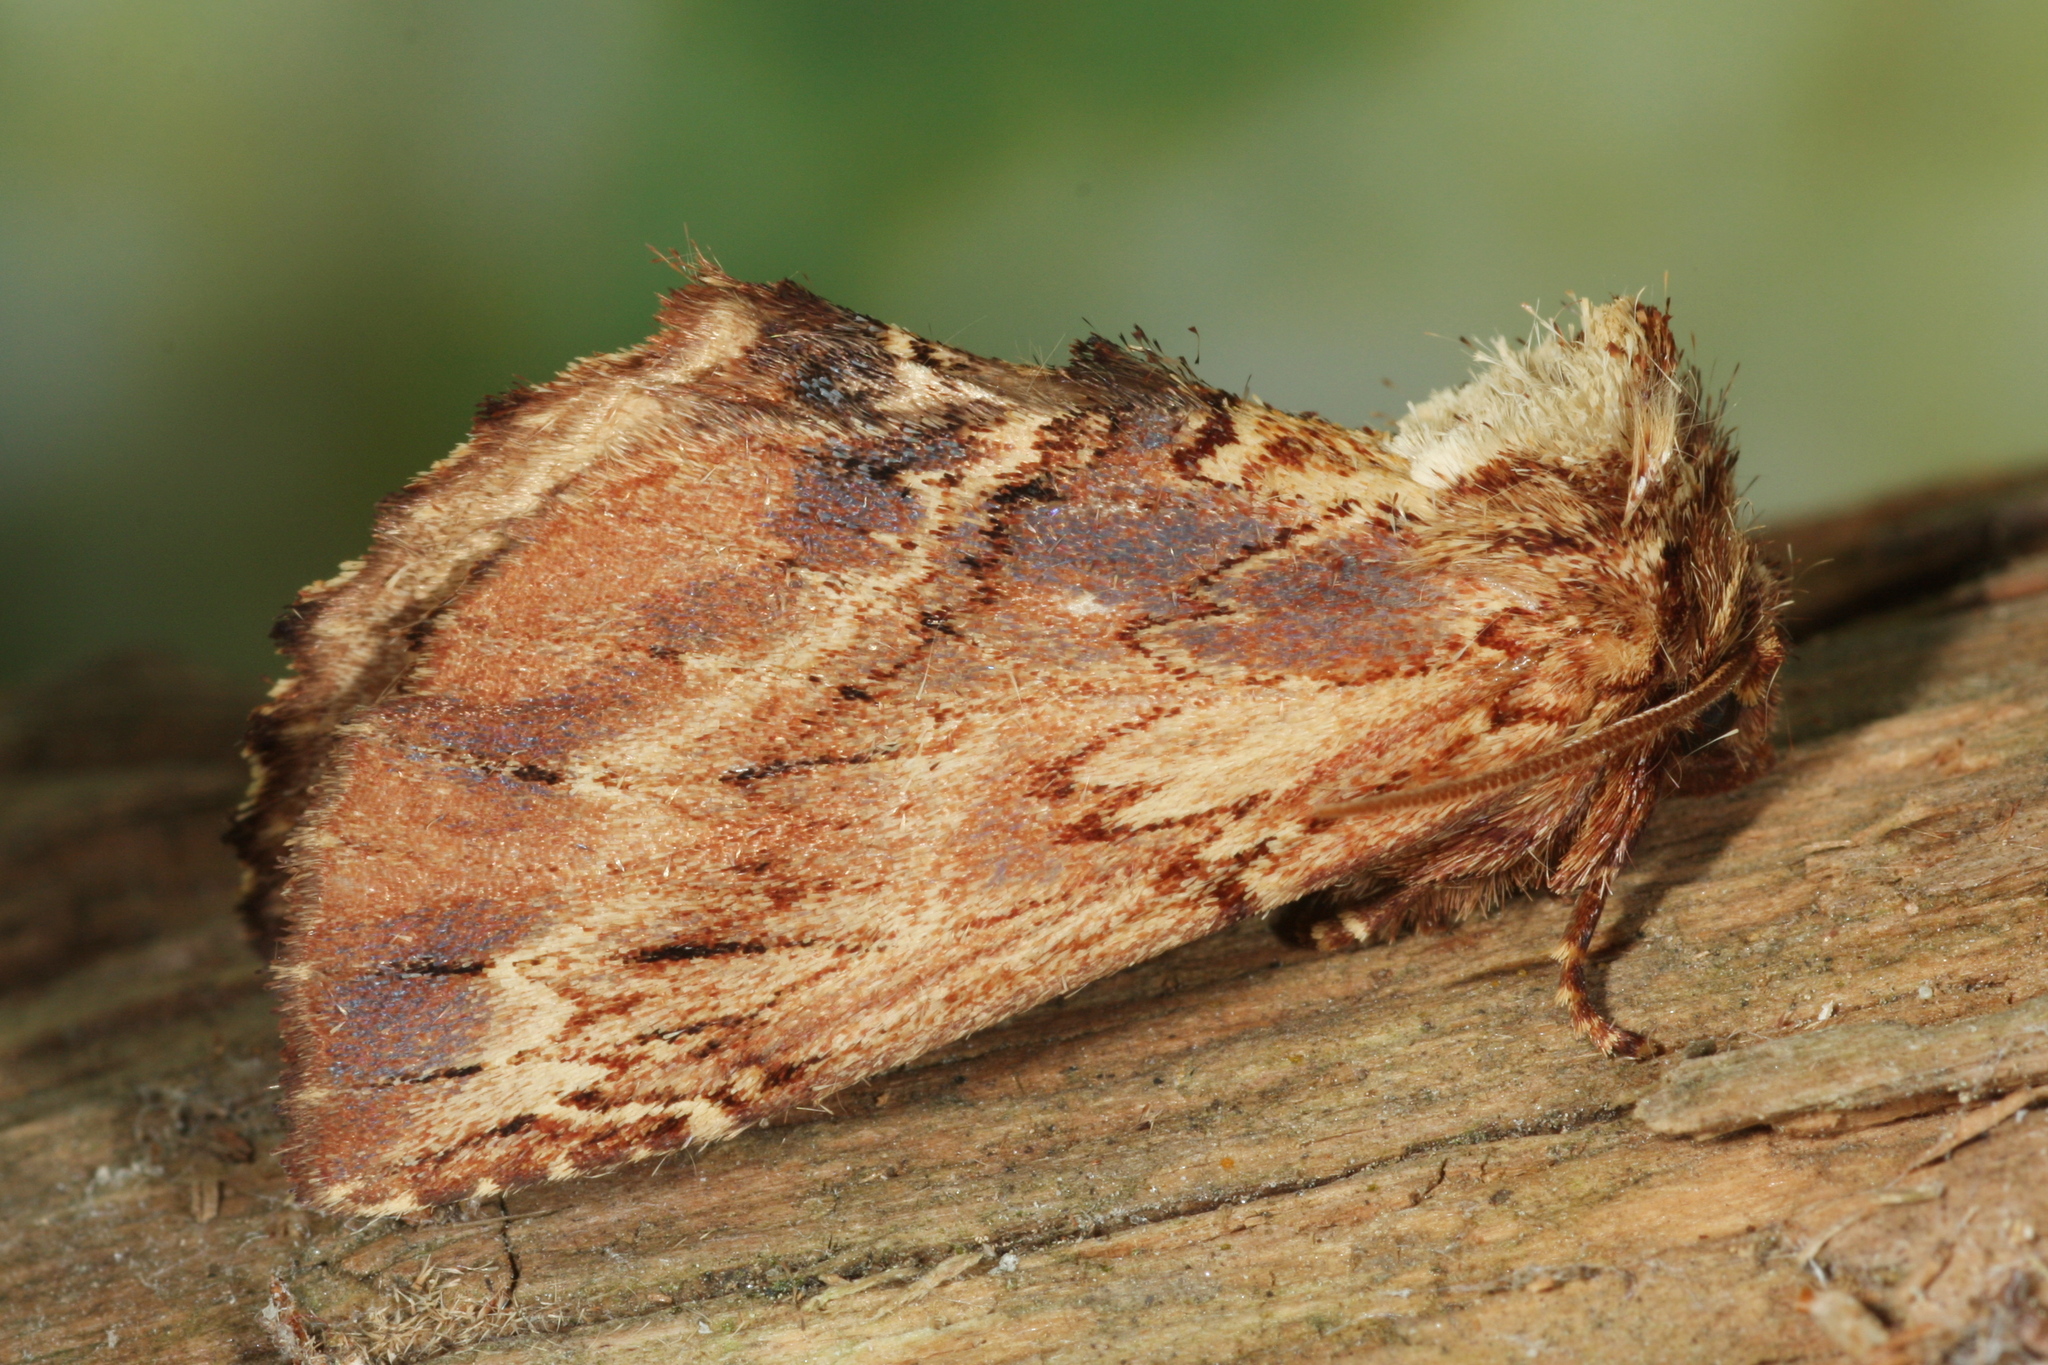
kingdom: Animalia
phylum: Arthropoda
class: Insecta
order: Lepidoptera
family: Notodontidae
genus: Ptilodon
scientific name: Ptilodon capucina
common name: Coxcomb prominent
